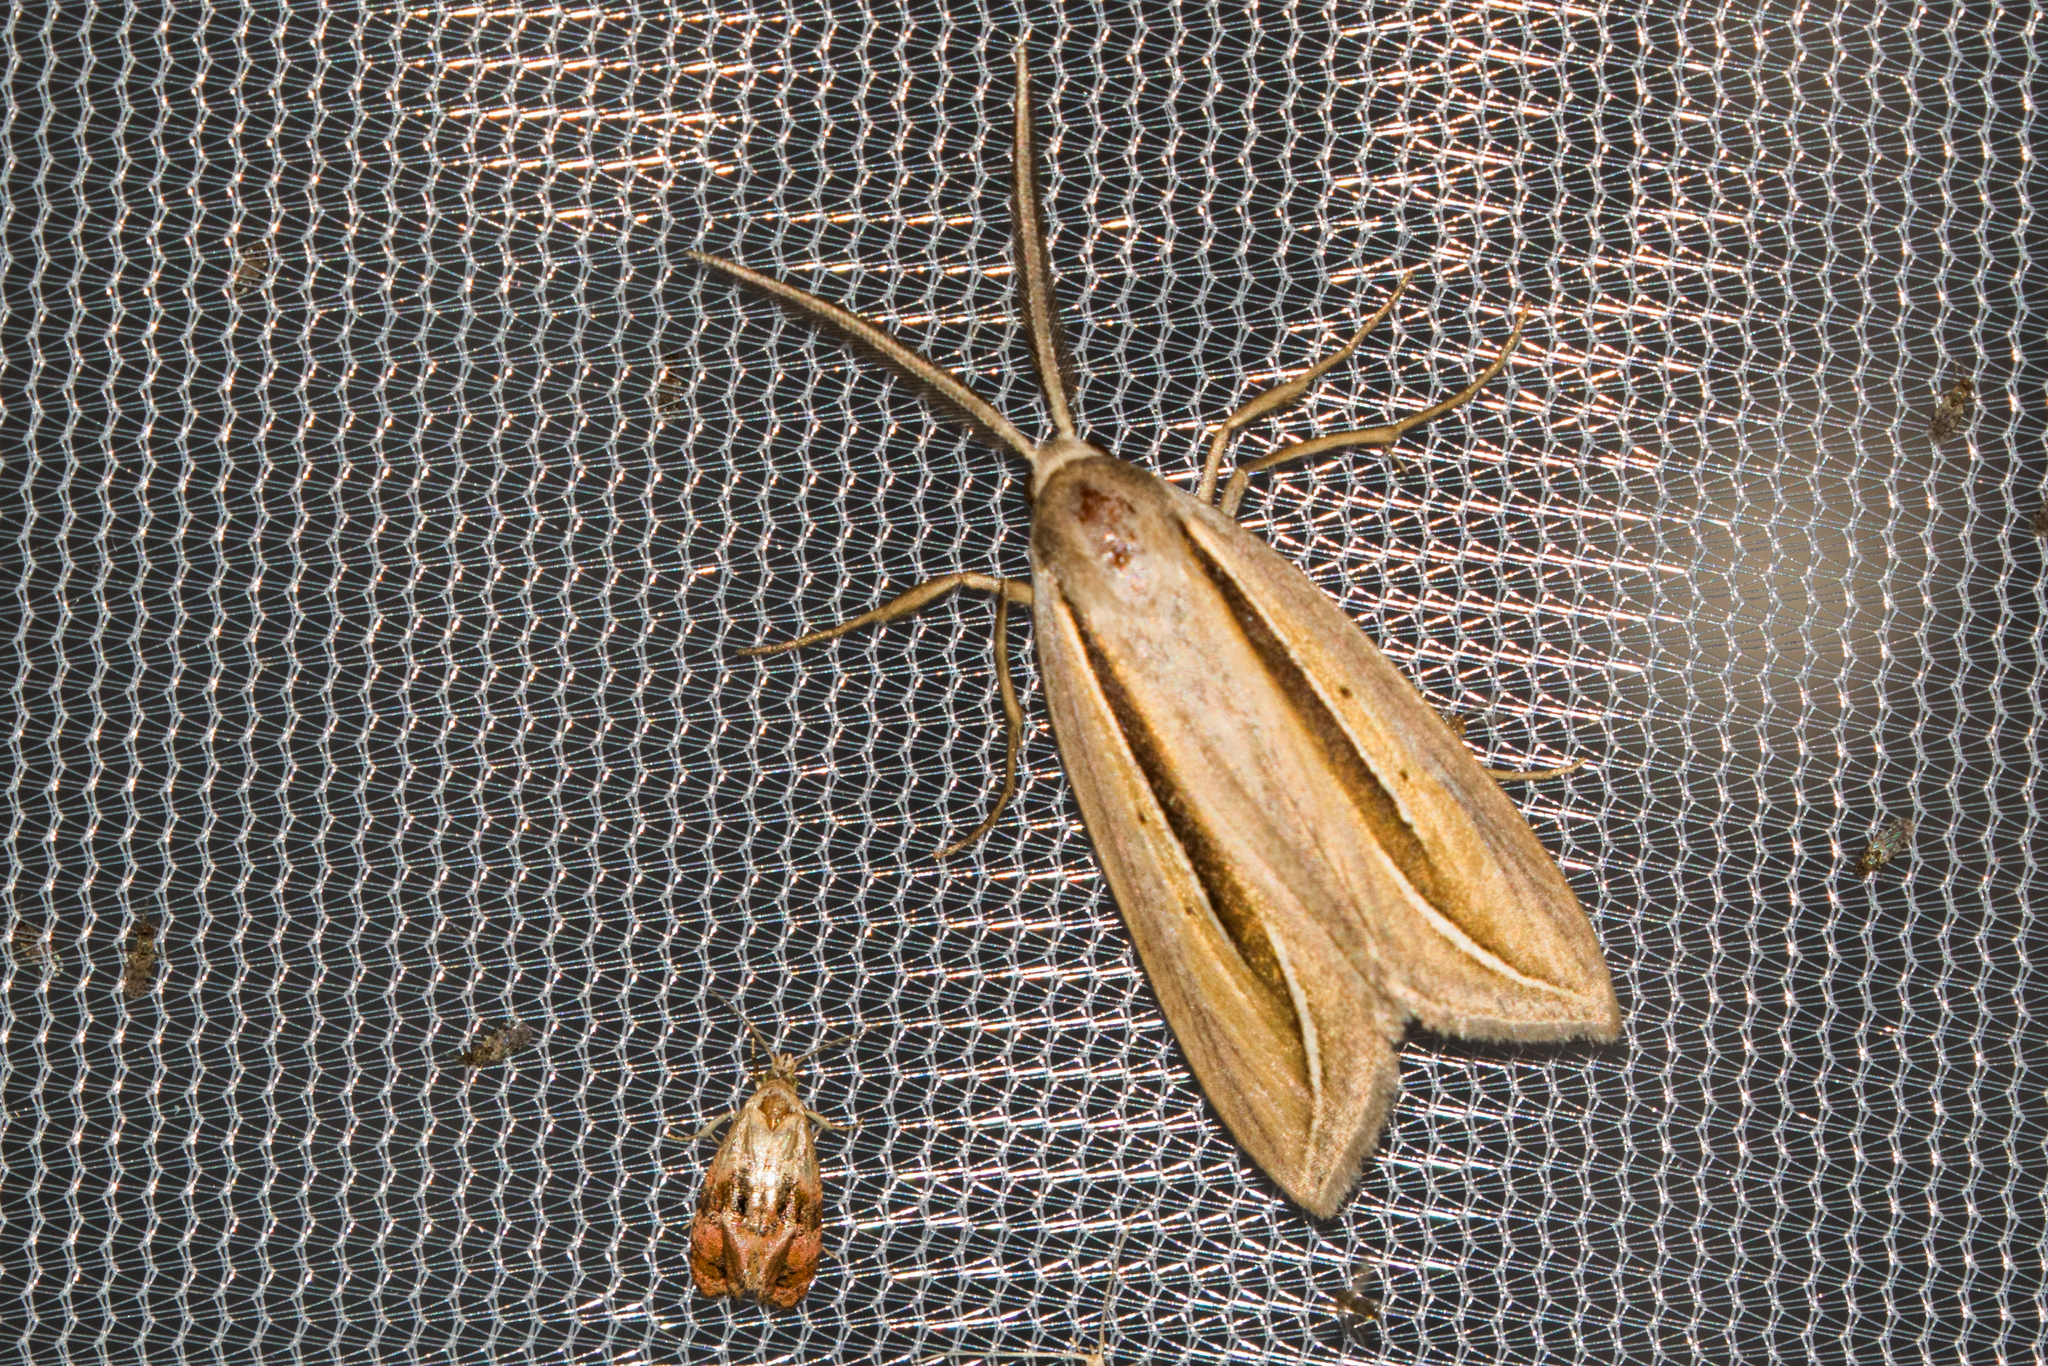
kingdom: Animalia
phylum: Arthropoda
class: Insecta
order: Lepidoptera
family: Erebidae
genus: Doryodes
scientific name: Doryodes bistrialis
